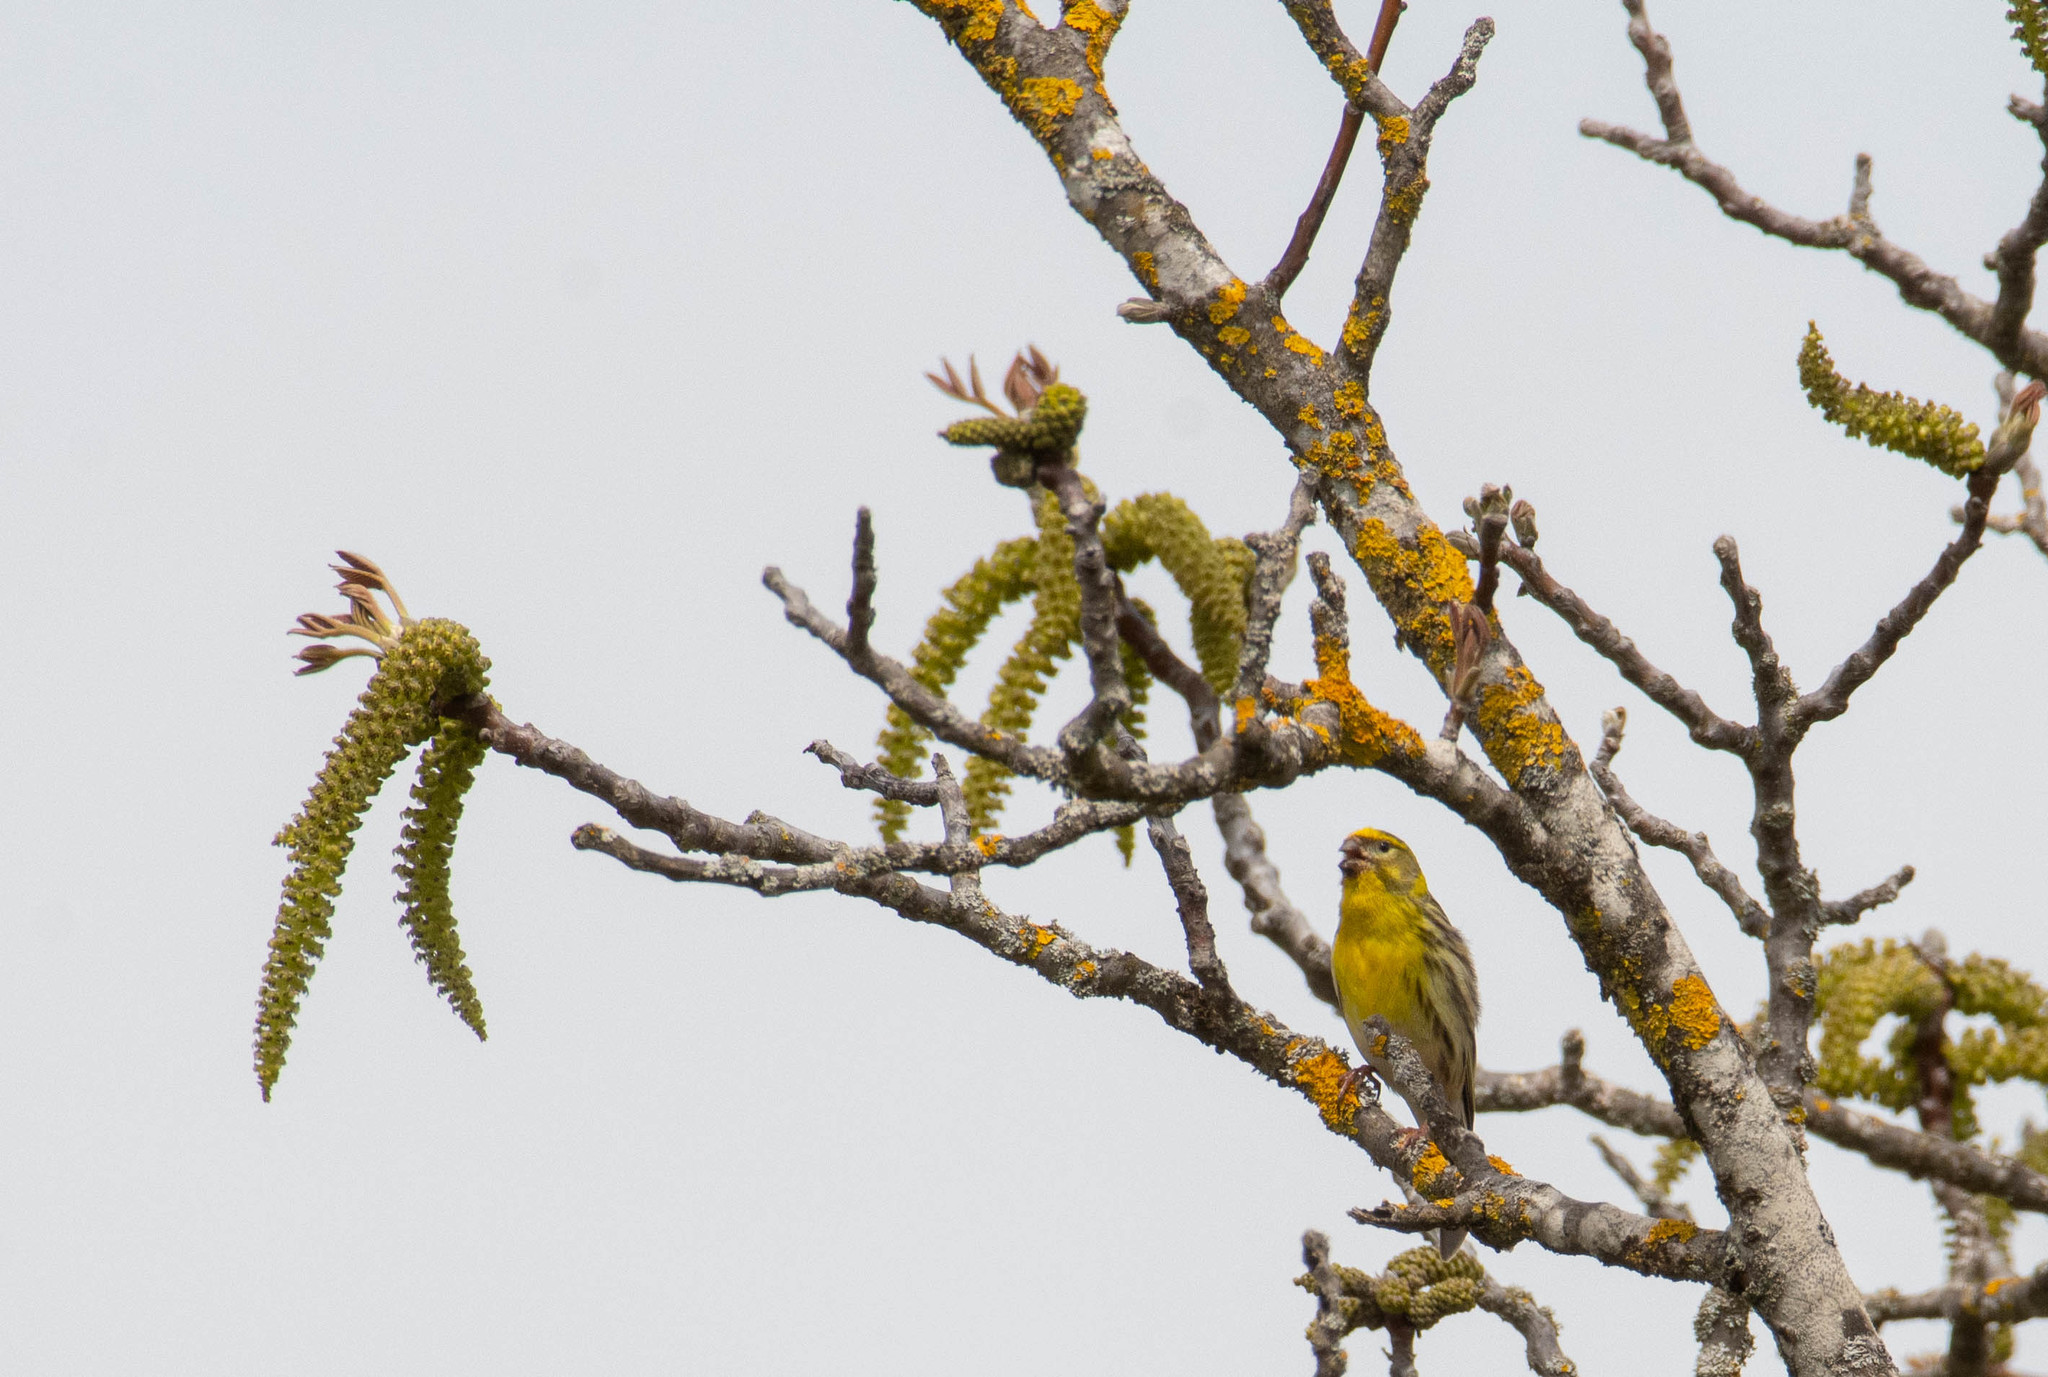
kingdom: Animalia
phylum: Chordata
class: Aves
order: Passeriformes
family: Fringillidae
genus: Serinus
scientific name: Serinus serinus
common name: European serin
